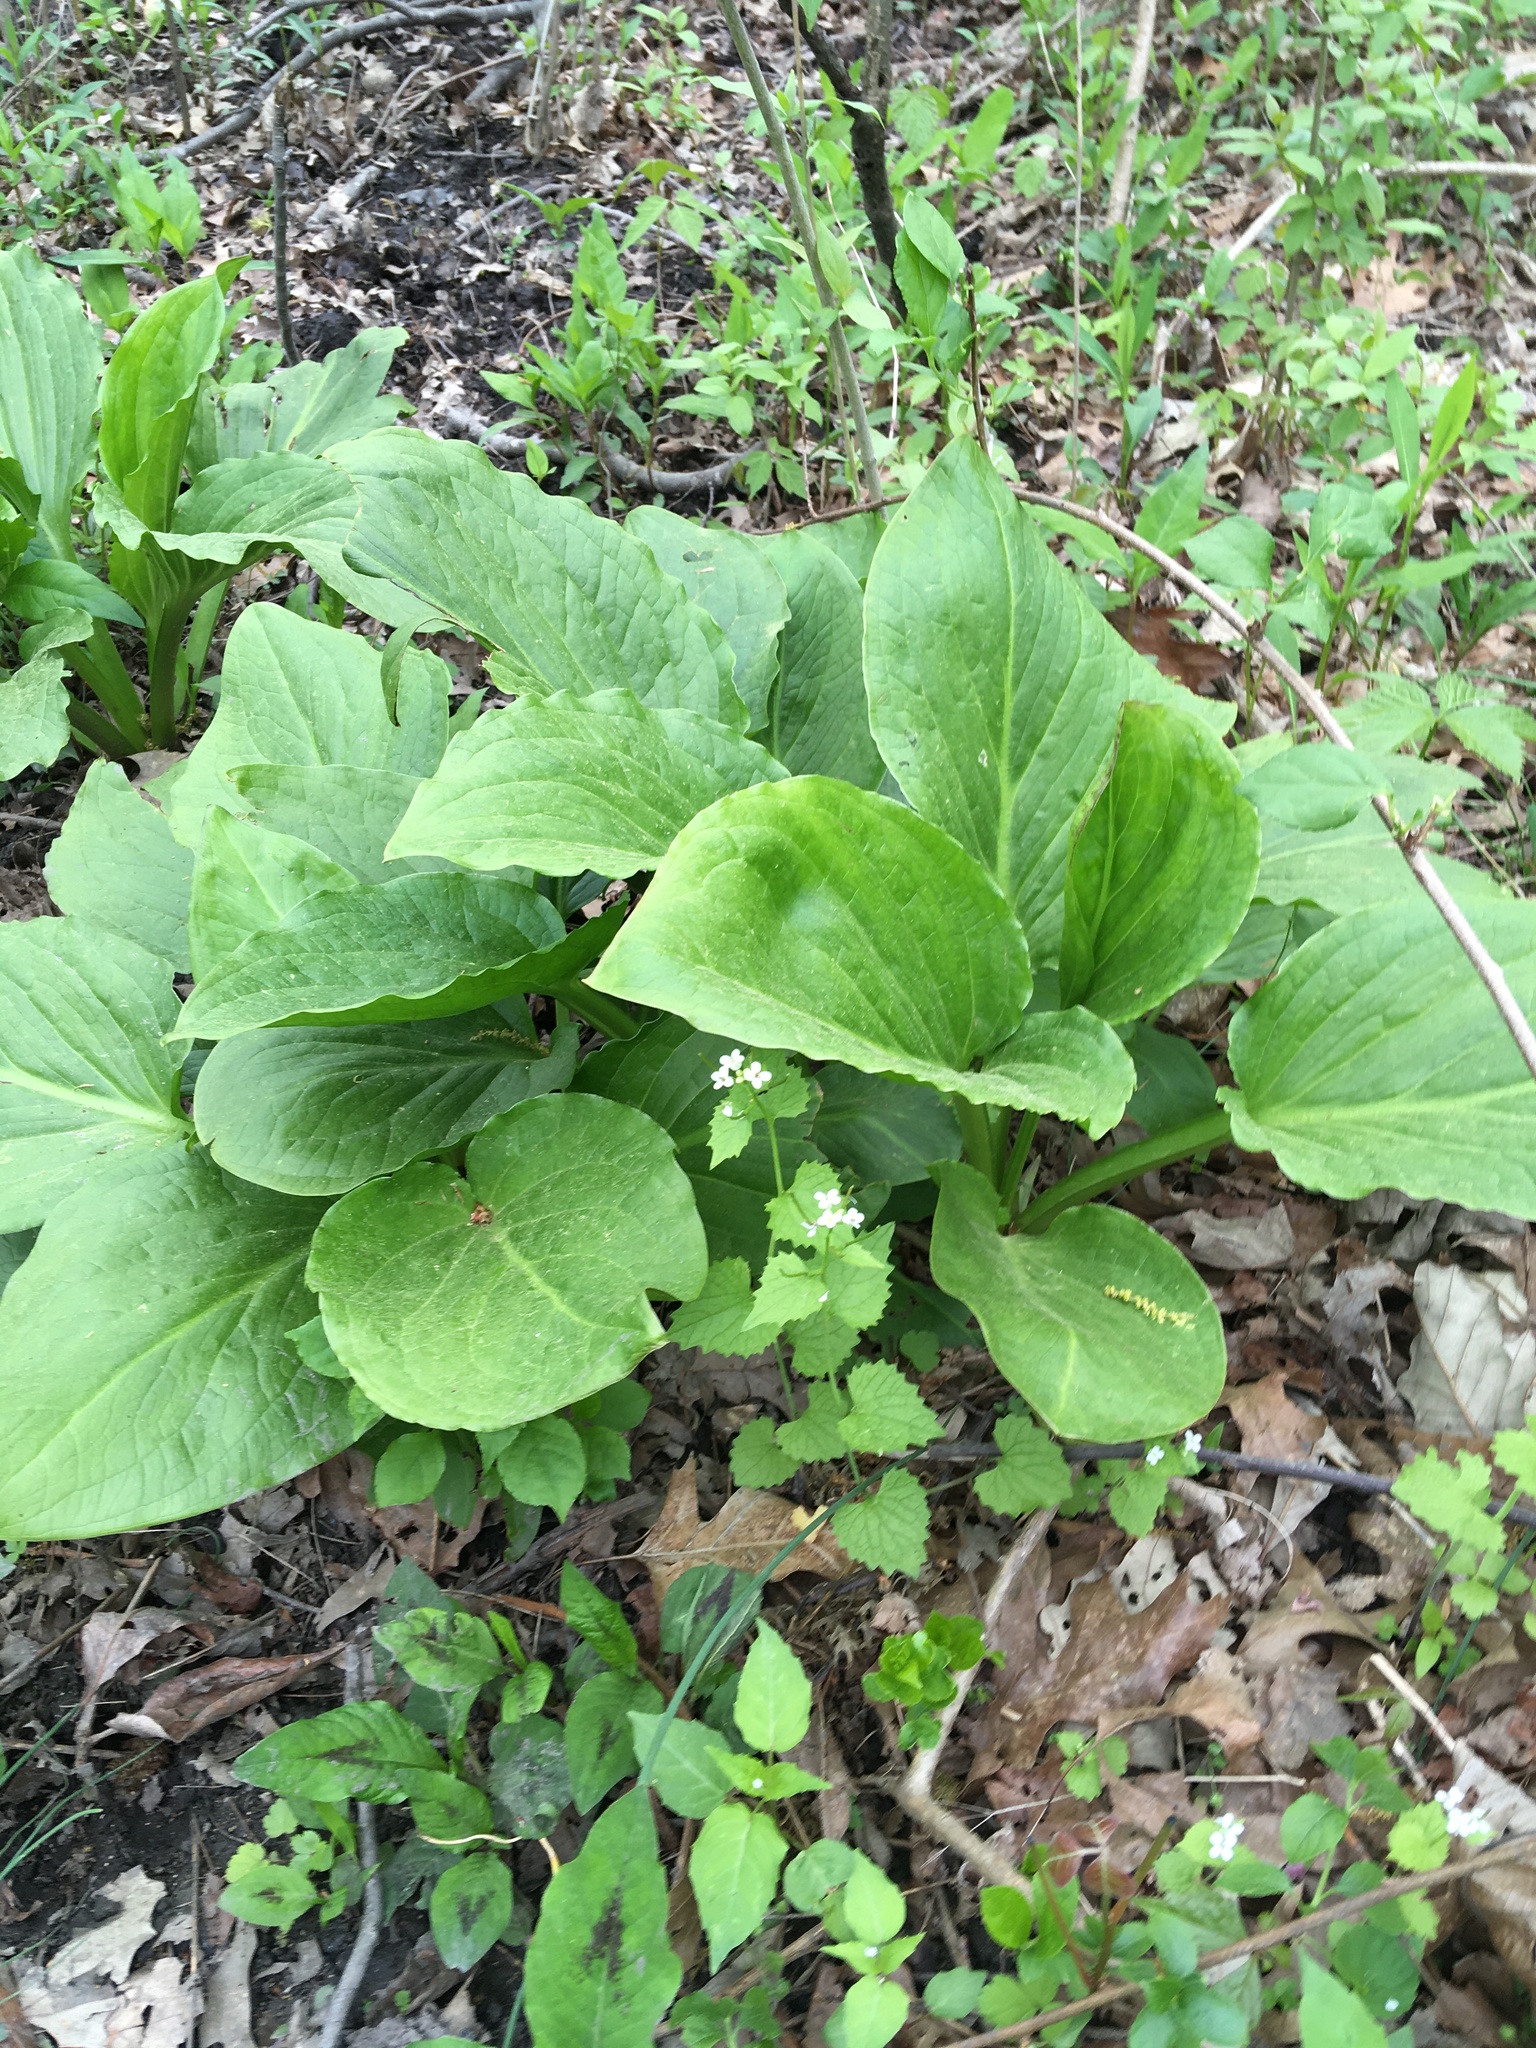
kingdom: Plantae
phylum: Tracheophyta
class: Liliopsida
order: Alismatales
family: Araceae
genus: Symplocarpus
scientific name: Symplocarpus foetidus
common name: Eastern skunk cabbage
